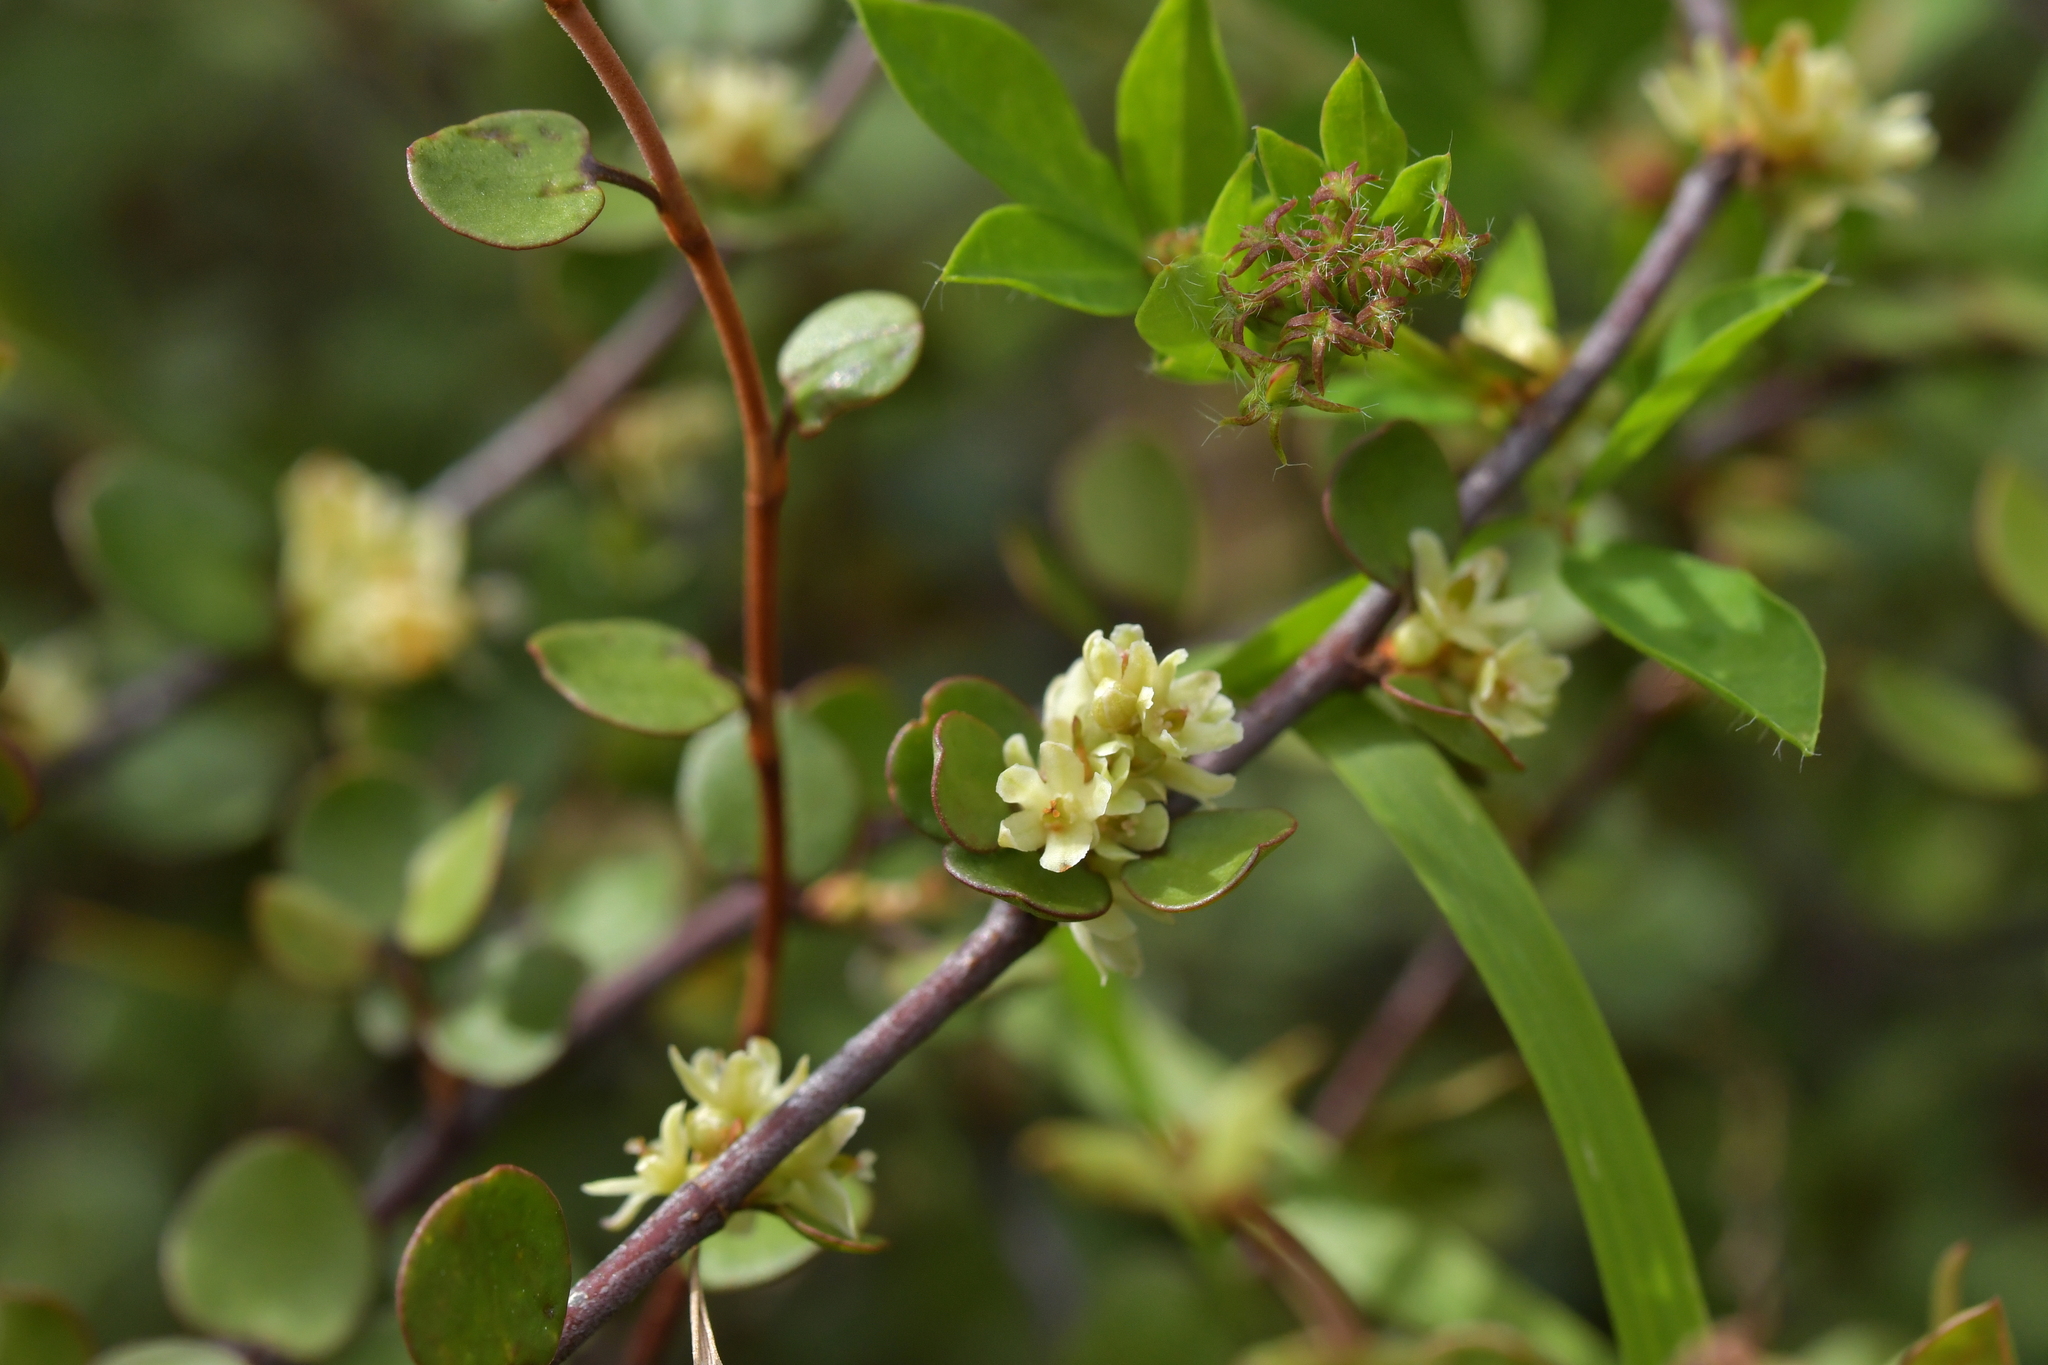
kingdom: Plantae
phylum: Tracheophyta
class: Magnoliopsida
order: Caryophyllales
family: Polygonaceae
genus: Muehlenbeckia
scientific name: Muehlenbeckia complexa
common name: Wireplant
